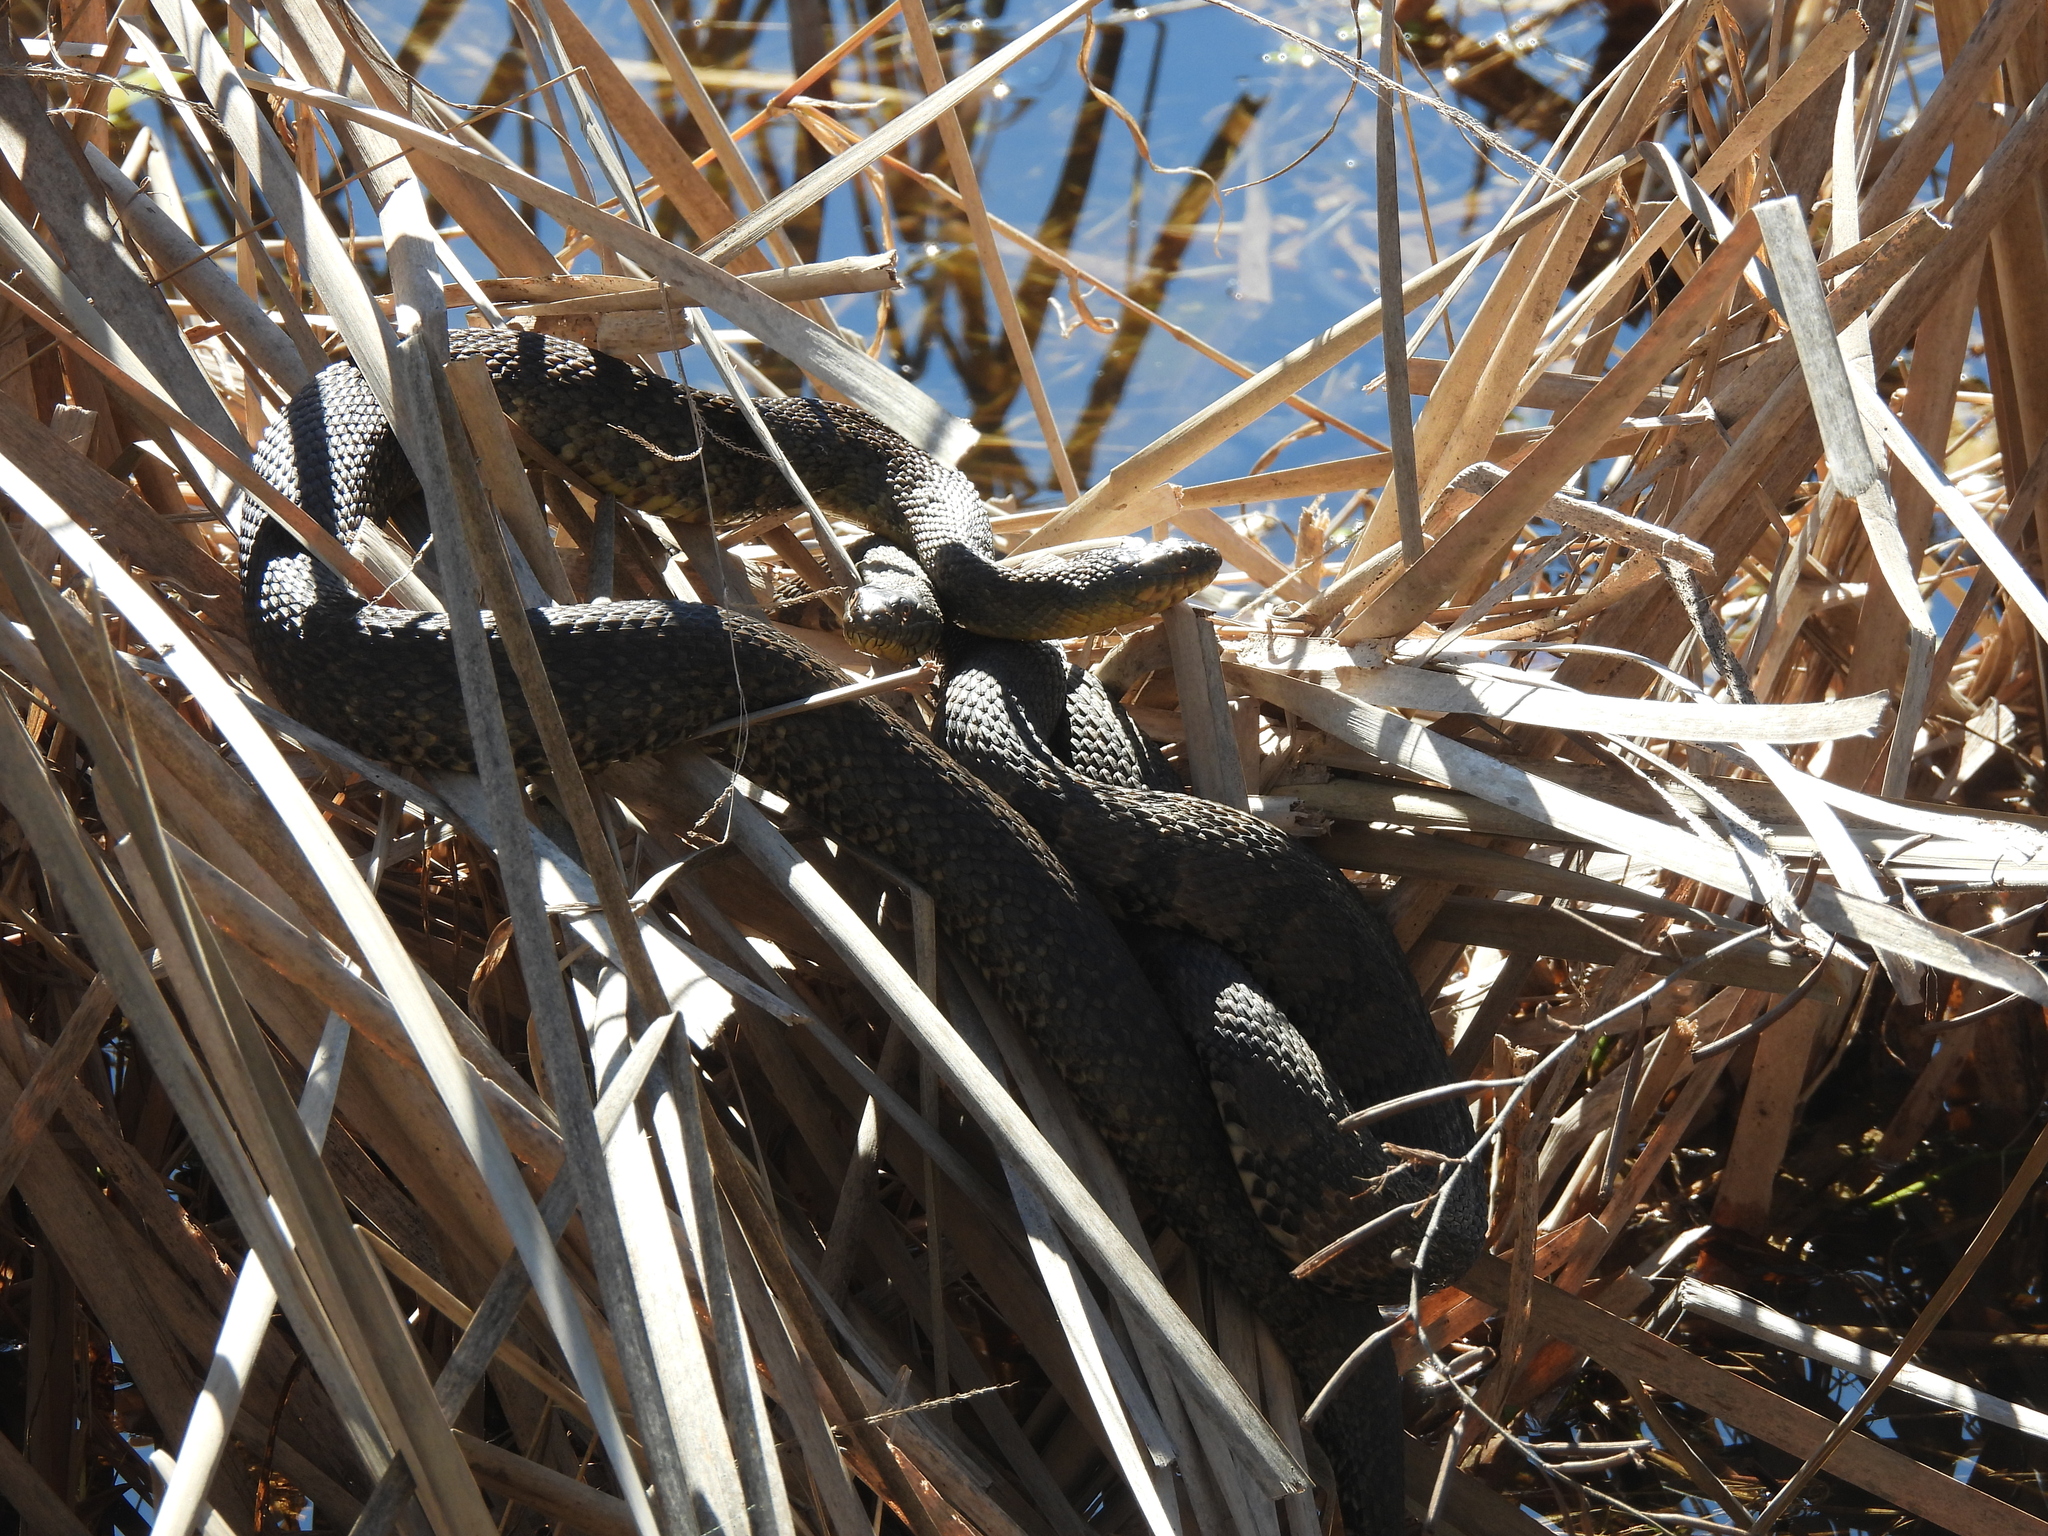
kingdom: Animalia
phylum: Chordata
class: Squamata
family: Colubridae
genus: Nerodia
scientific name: Nerodia rhombifer
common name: Diamondback water snake
